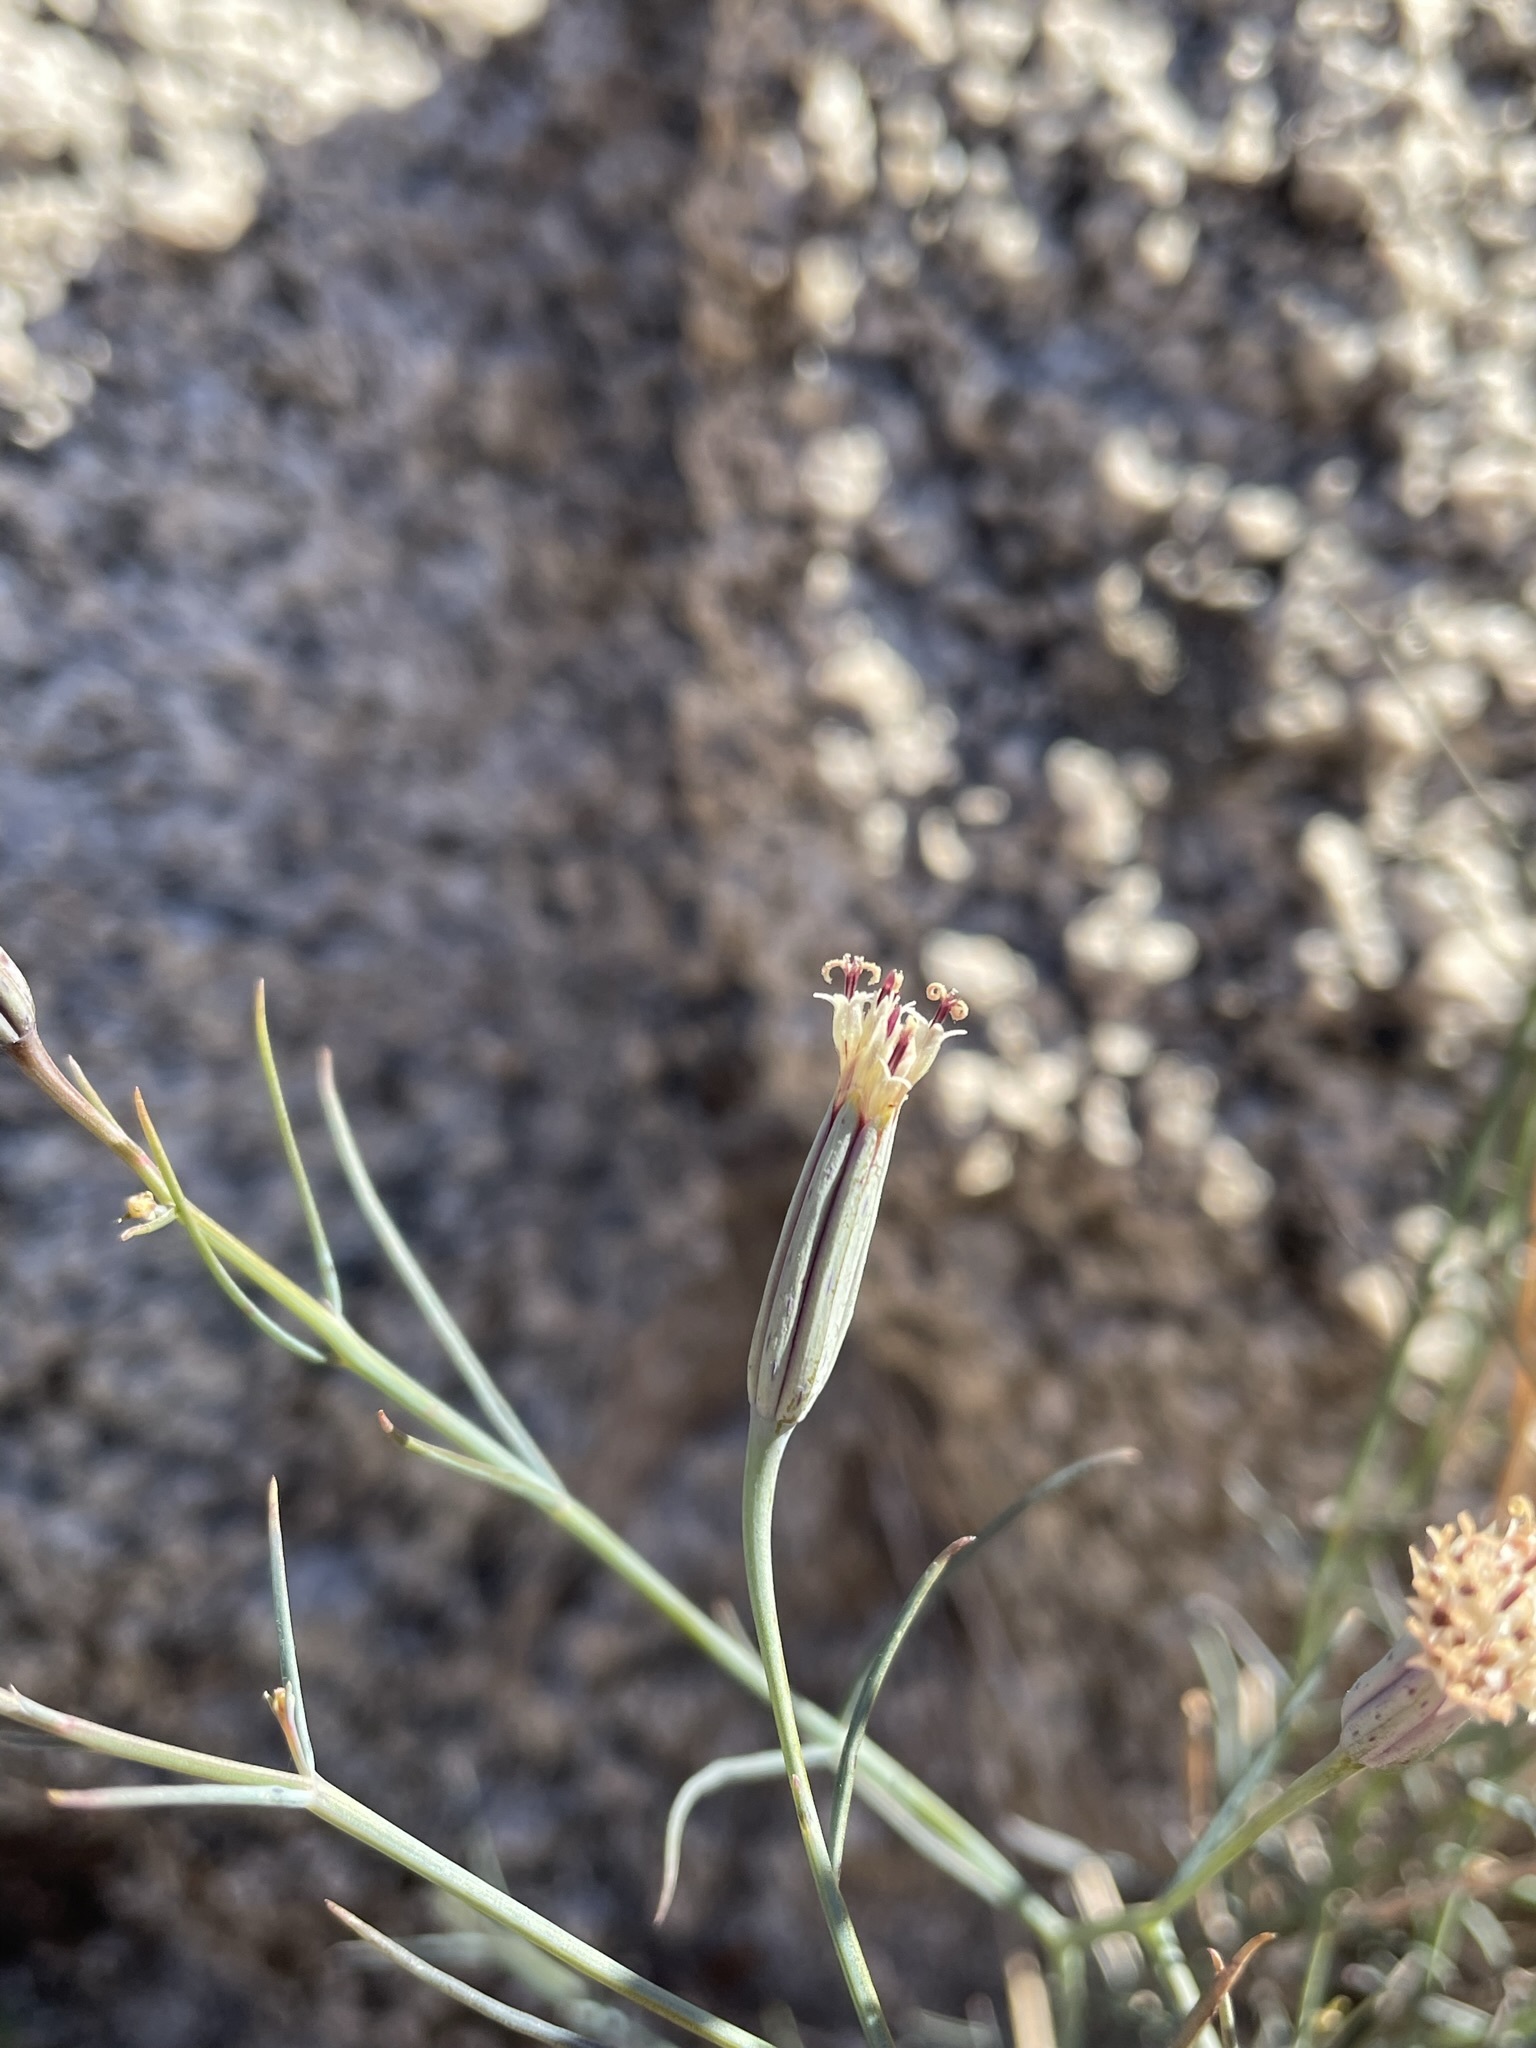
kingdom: Plantae
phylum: Tracheophyta
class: Magnoliopsida
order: Asterales
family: Asteraceae
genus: Porophyllum
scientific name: Porophyllum gracile
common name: Odora
